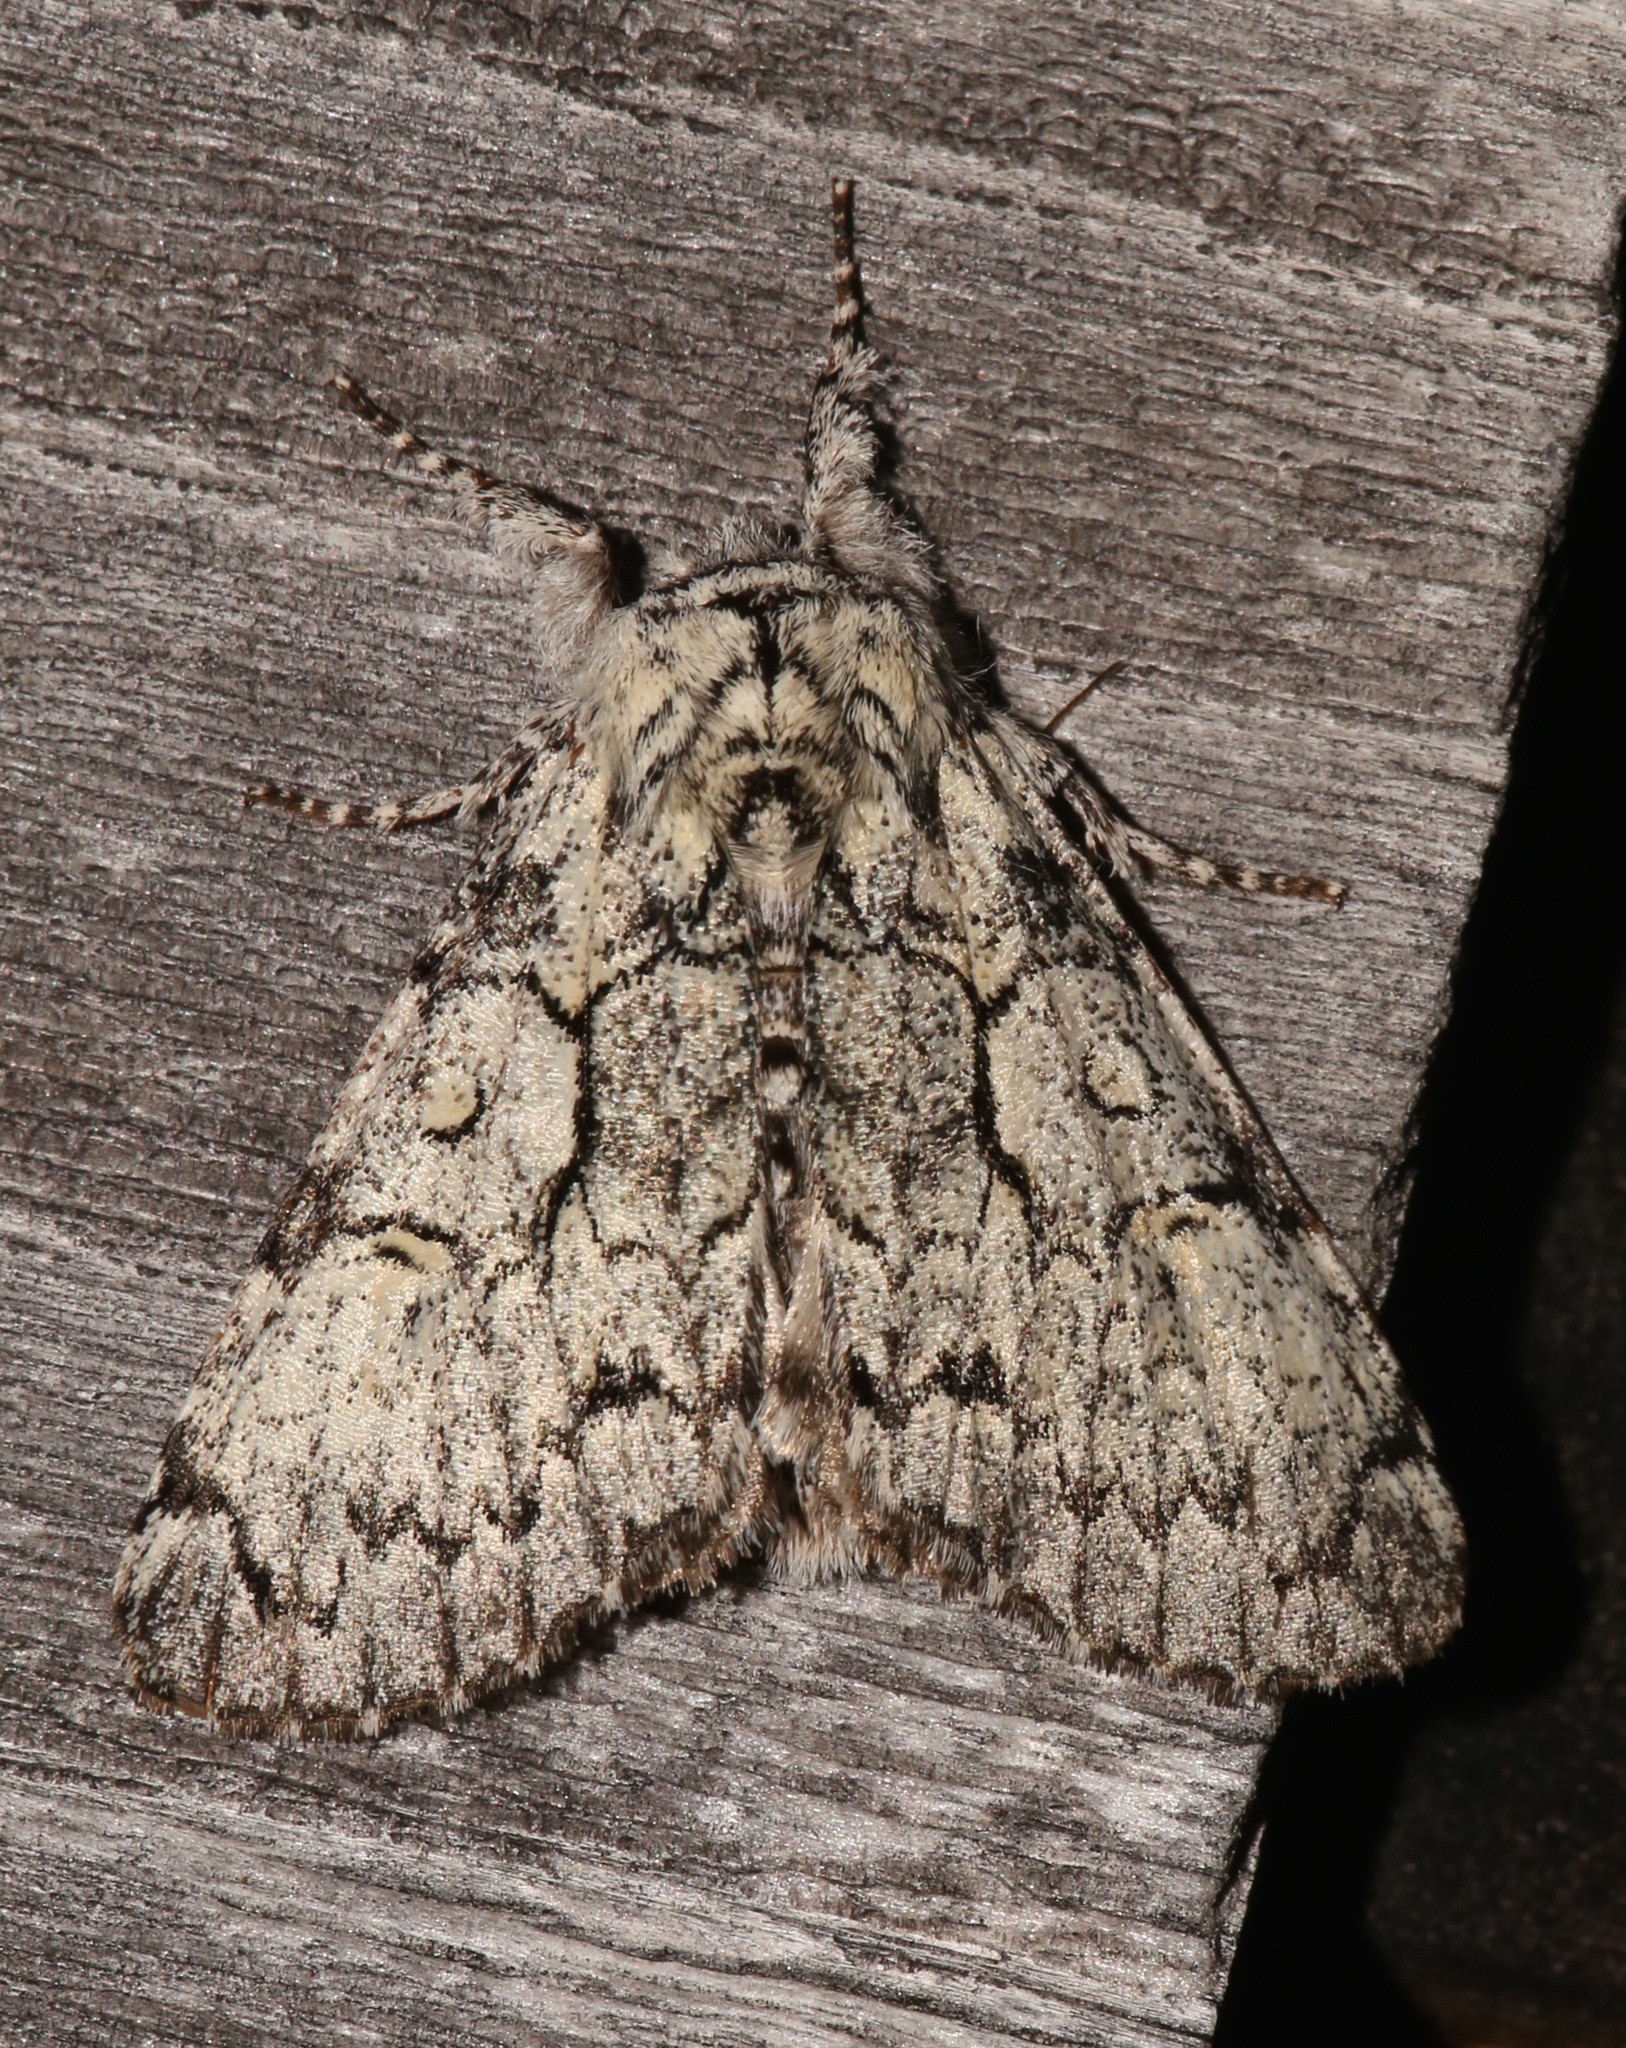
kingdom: Animalia
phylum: Arthropoda
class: Insecta
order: Lepidoptera
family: Noctuidae
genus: Charadra
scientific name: Charadra deridens
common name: Marbled tuffet
